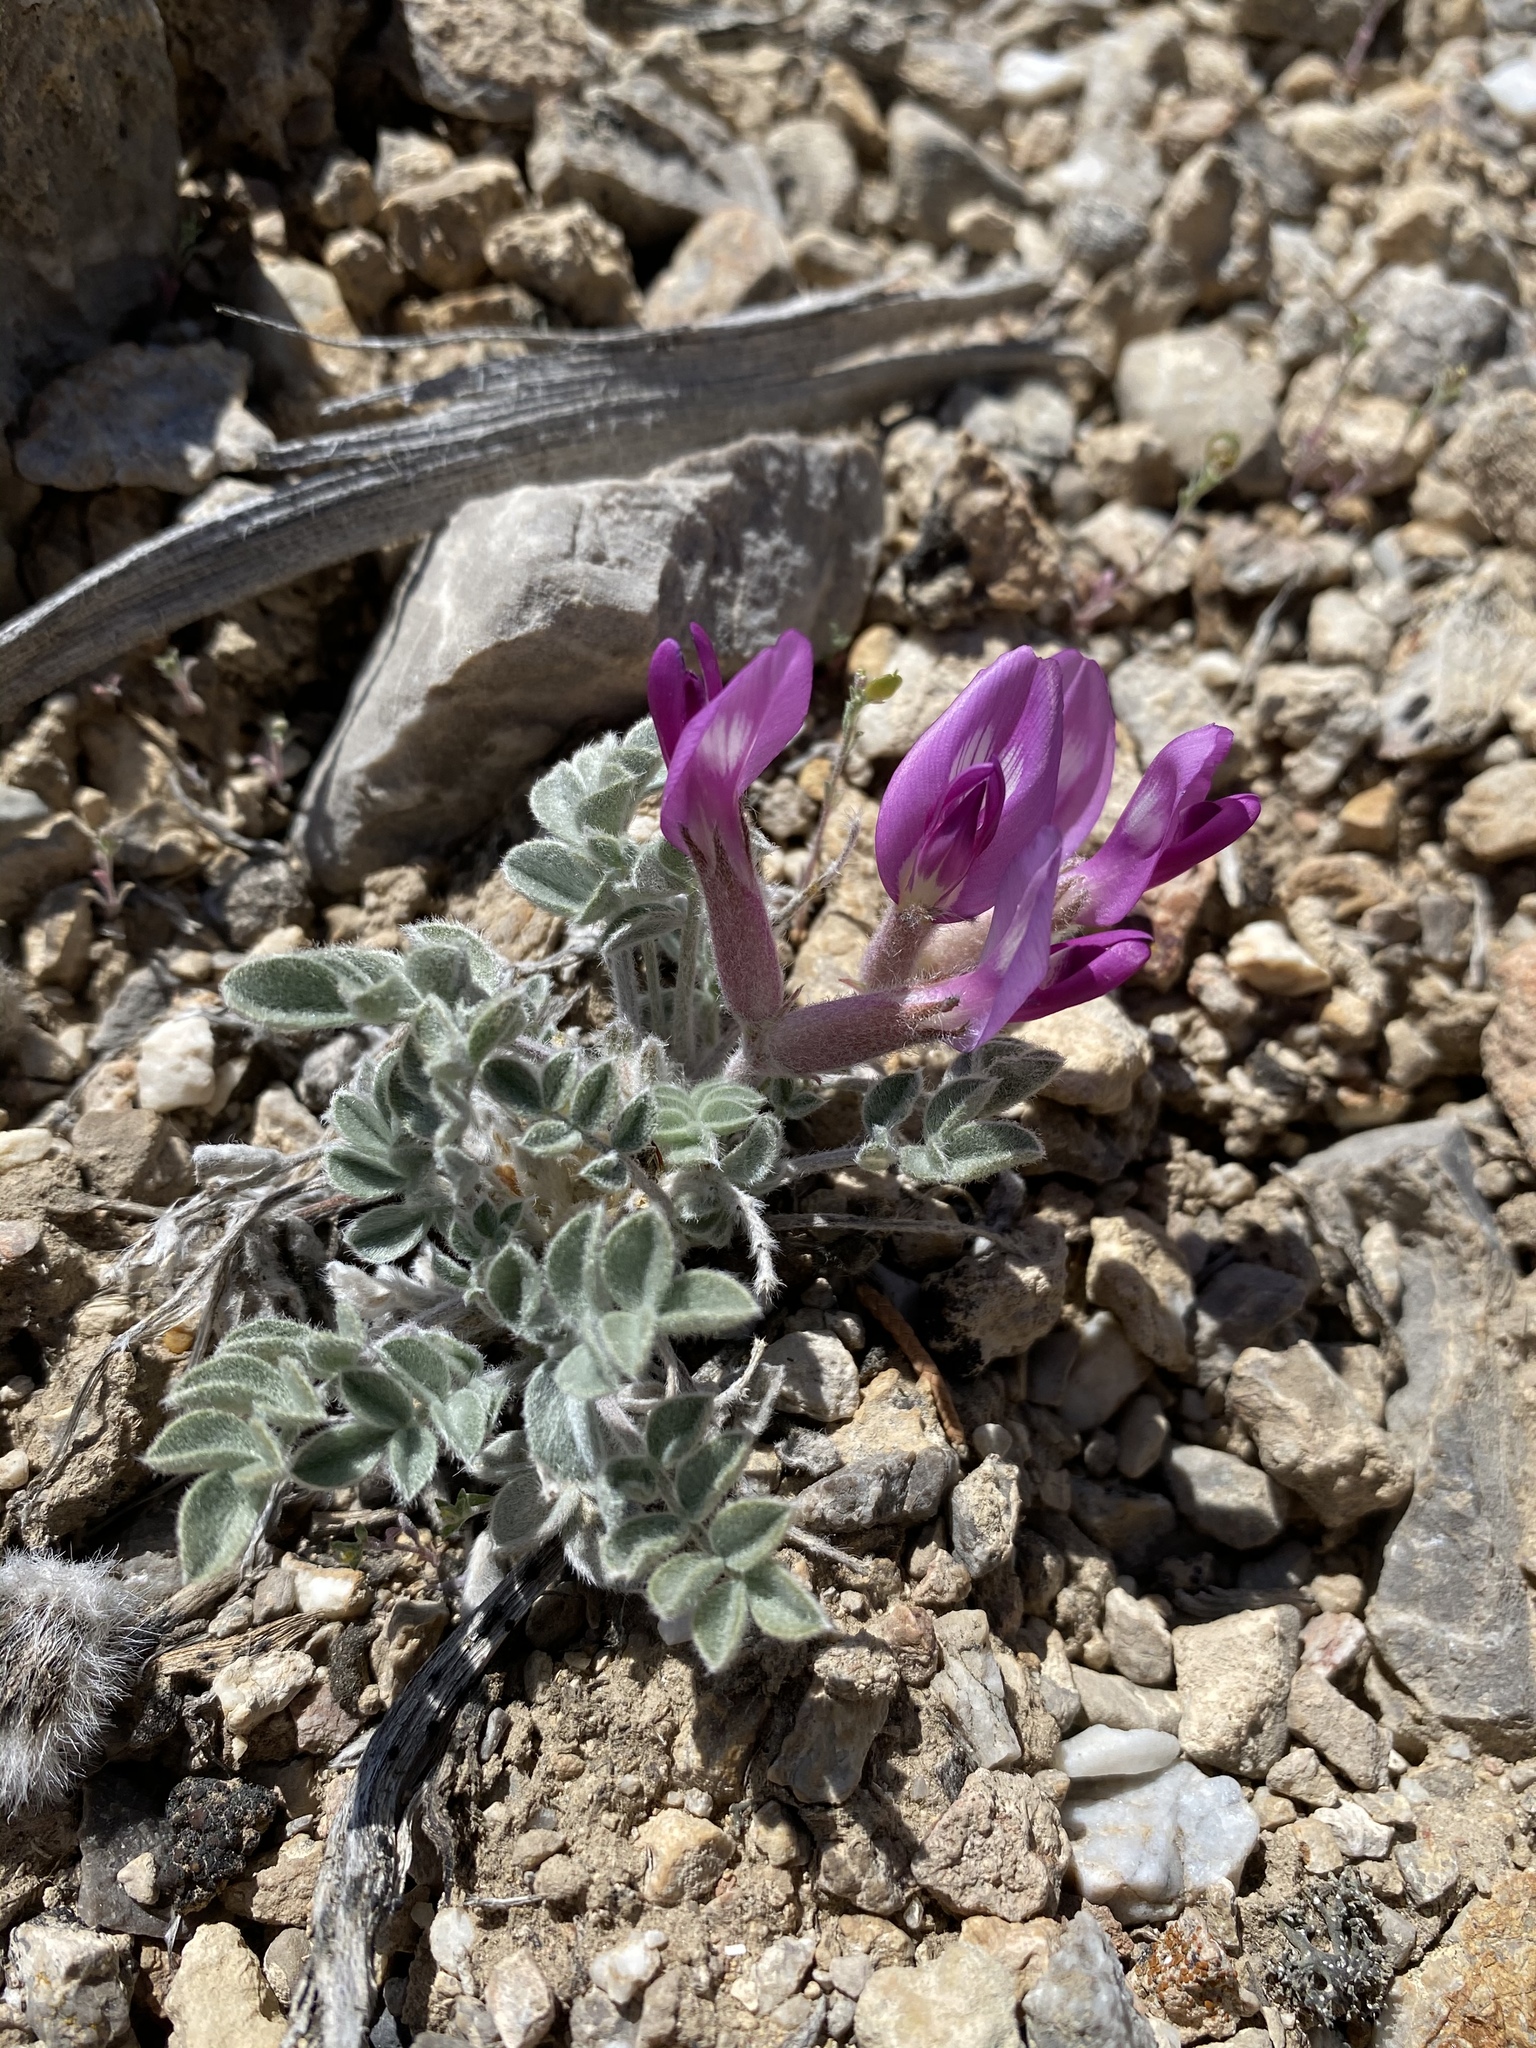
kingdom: Plantae
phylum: Tracheophyta
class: Magnoliopsida
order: Fabales
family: Fabaceae
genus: Astragalus
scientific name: Astragalus newberryi
